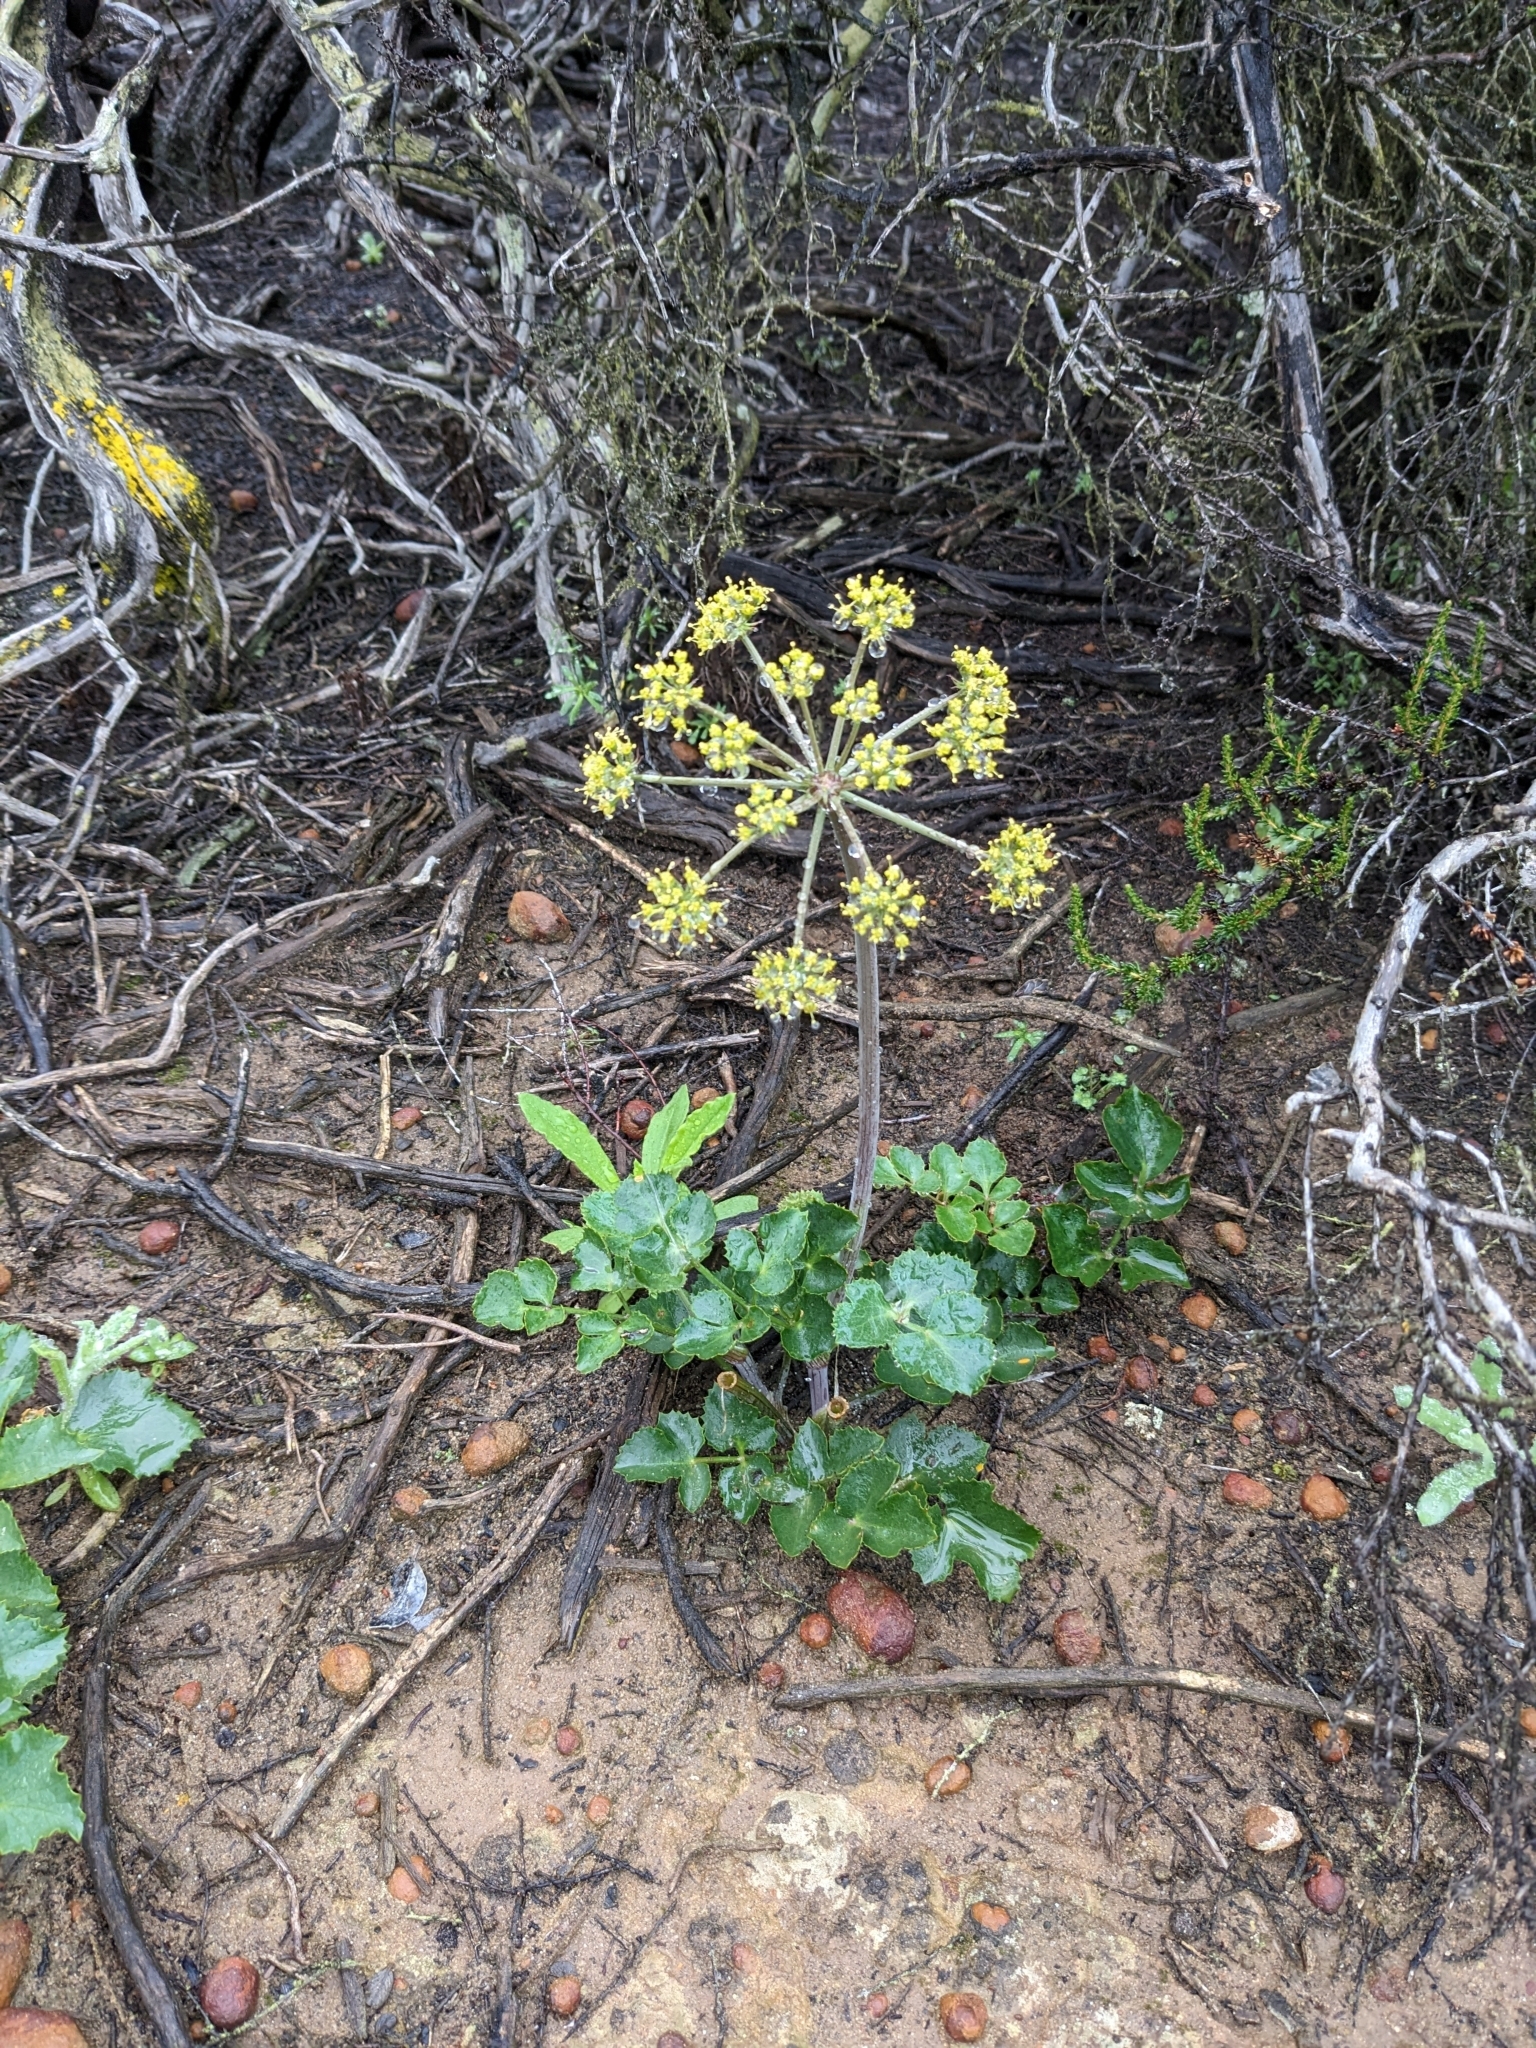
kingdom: Plantae
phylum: Tracheophyta
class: Magnoliopsida
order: Apiales
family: Apiaceae
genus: Lomatium
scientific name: Lomatium lucidum
